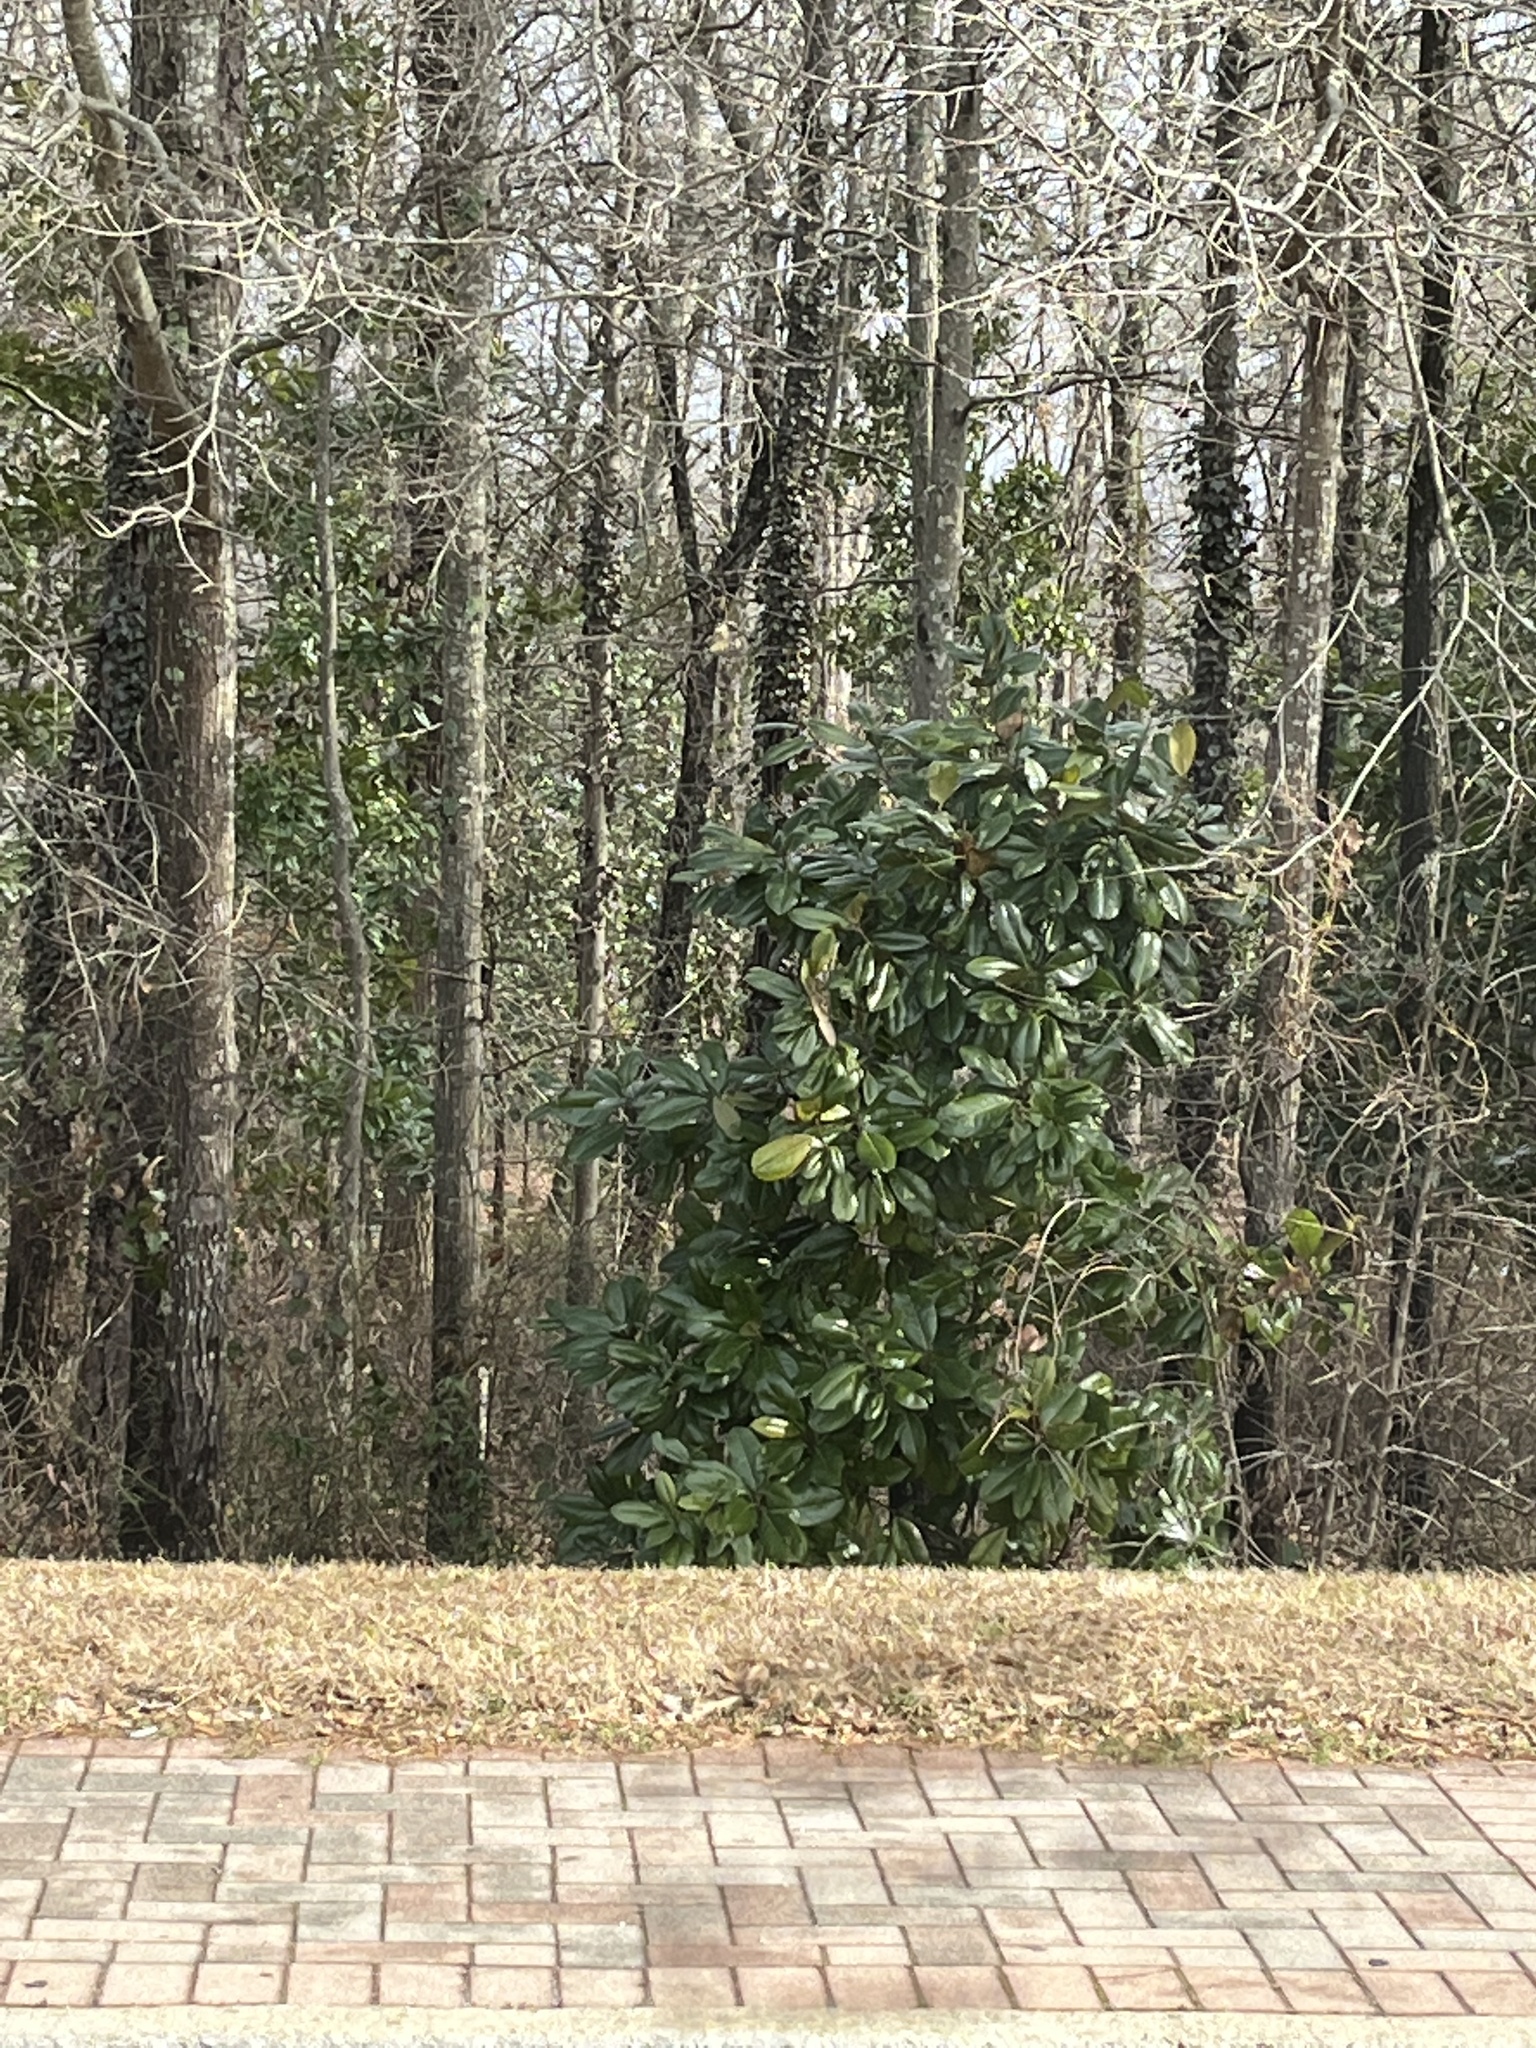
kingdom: Plantae
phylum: Tracheophyta
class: Magnoliopsida
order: Magnoliales
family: Magnoliaceae
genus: Magnolia
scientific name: Magnolia grandiflora
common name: Southern magnolia
